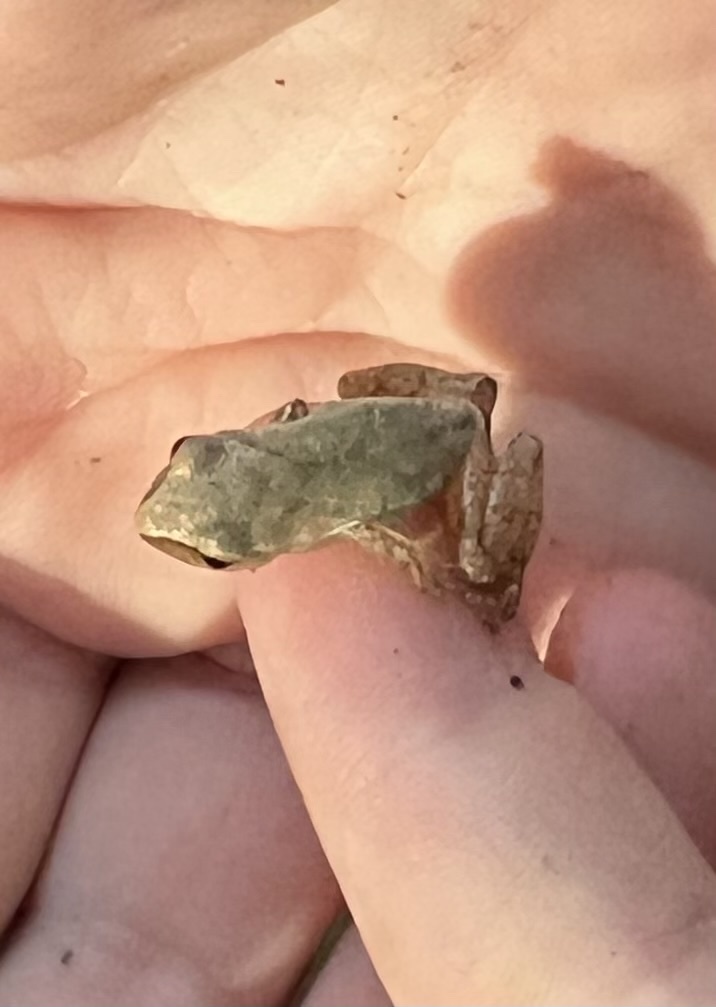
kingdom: Animalia
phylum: Chordata
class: Amphibia
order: Anura
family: Hylidae
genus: Pseudacris
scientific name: Pseudacris crucifer
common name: Spring peeper
